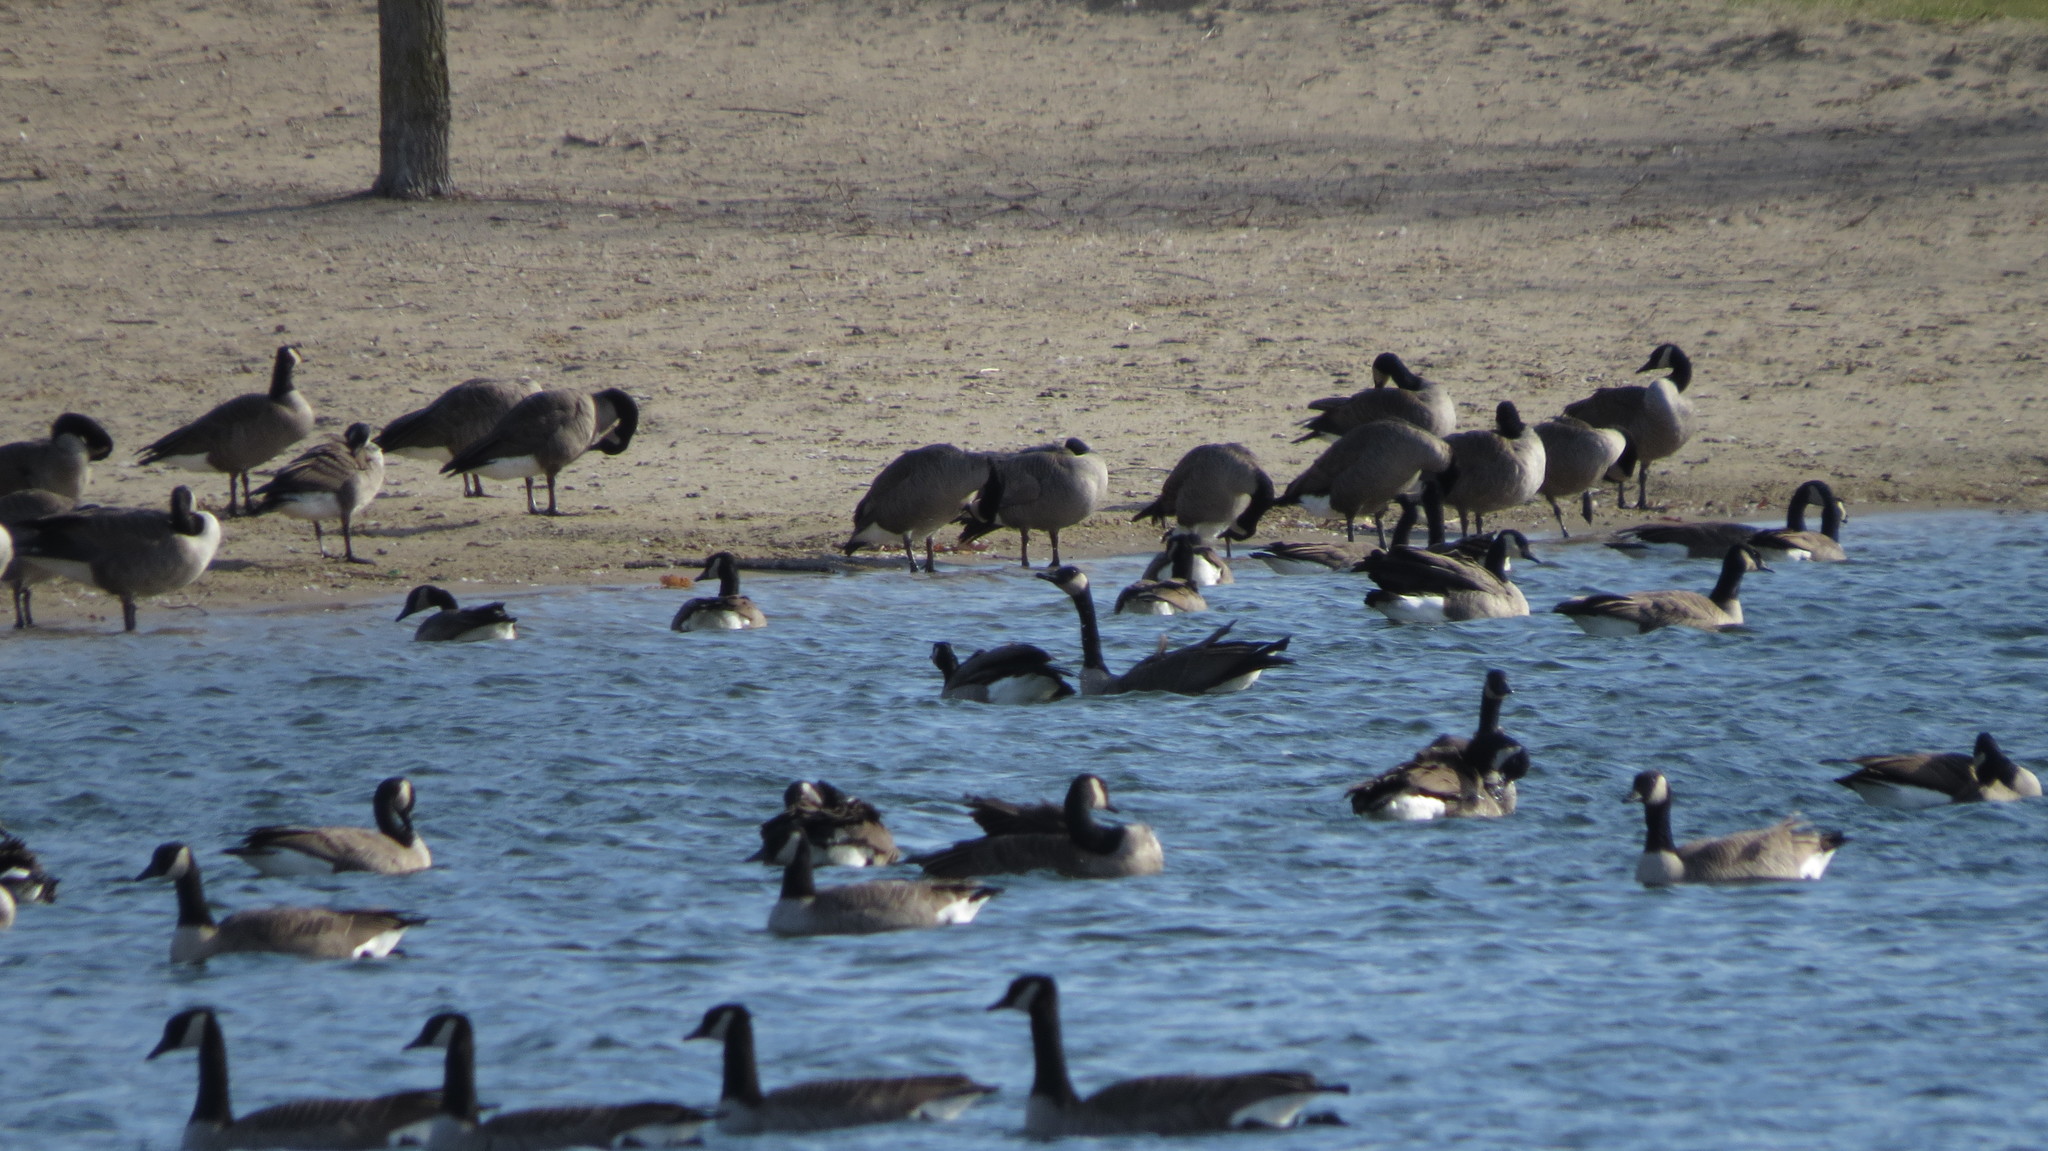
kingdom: Animalia
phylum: Chordata
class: Aves
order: Anseriformes
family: Anatidae
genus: Branta
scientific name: Branta canadensis
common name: Canada goose
